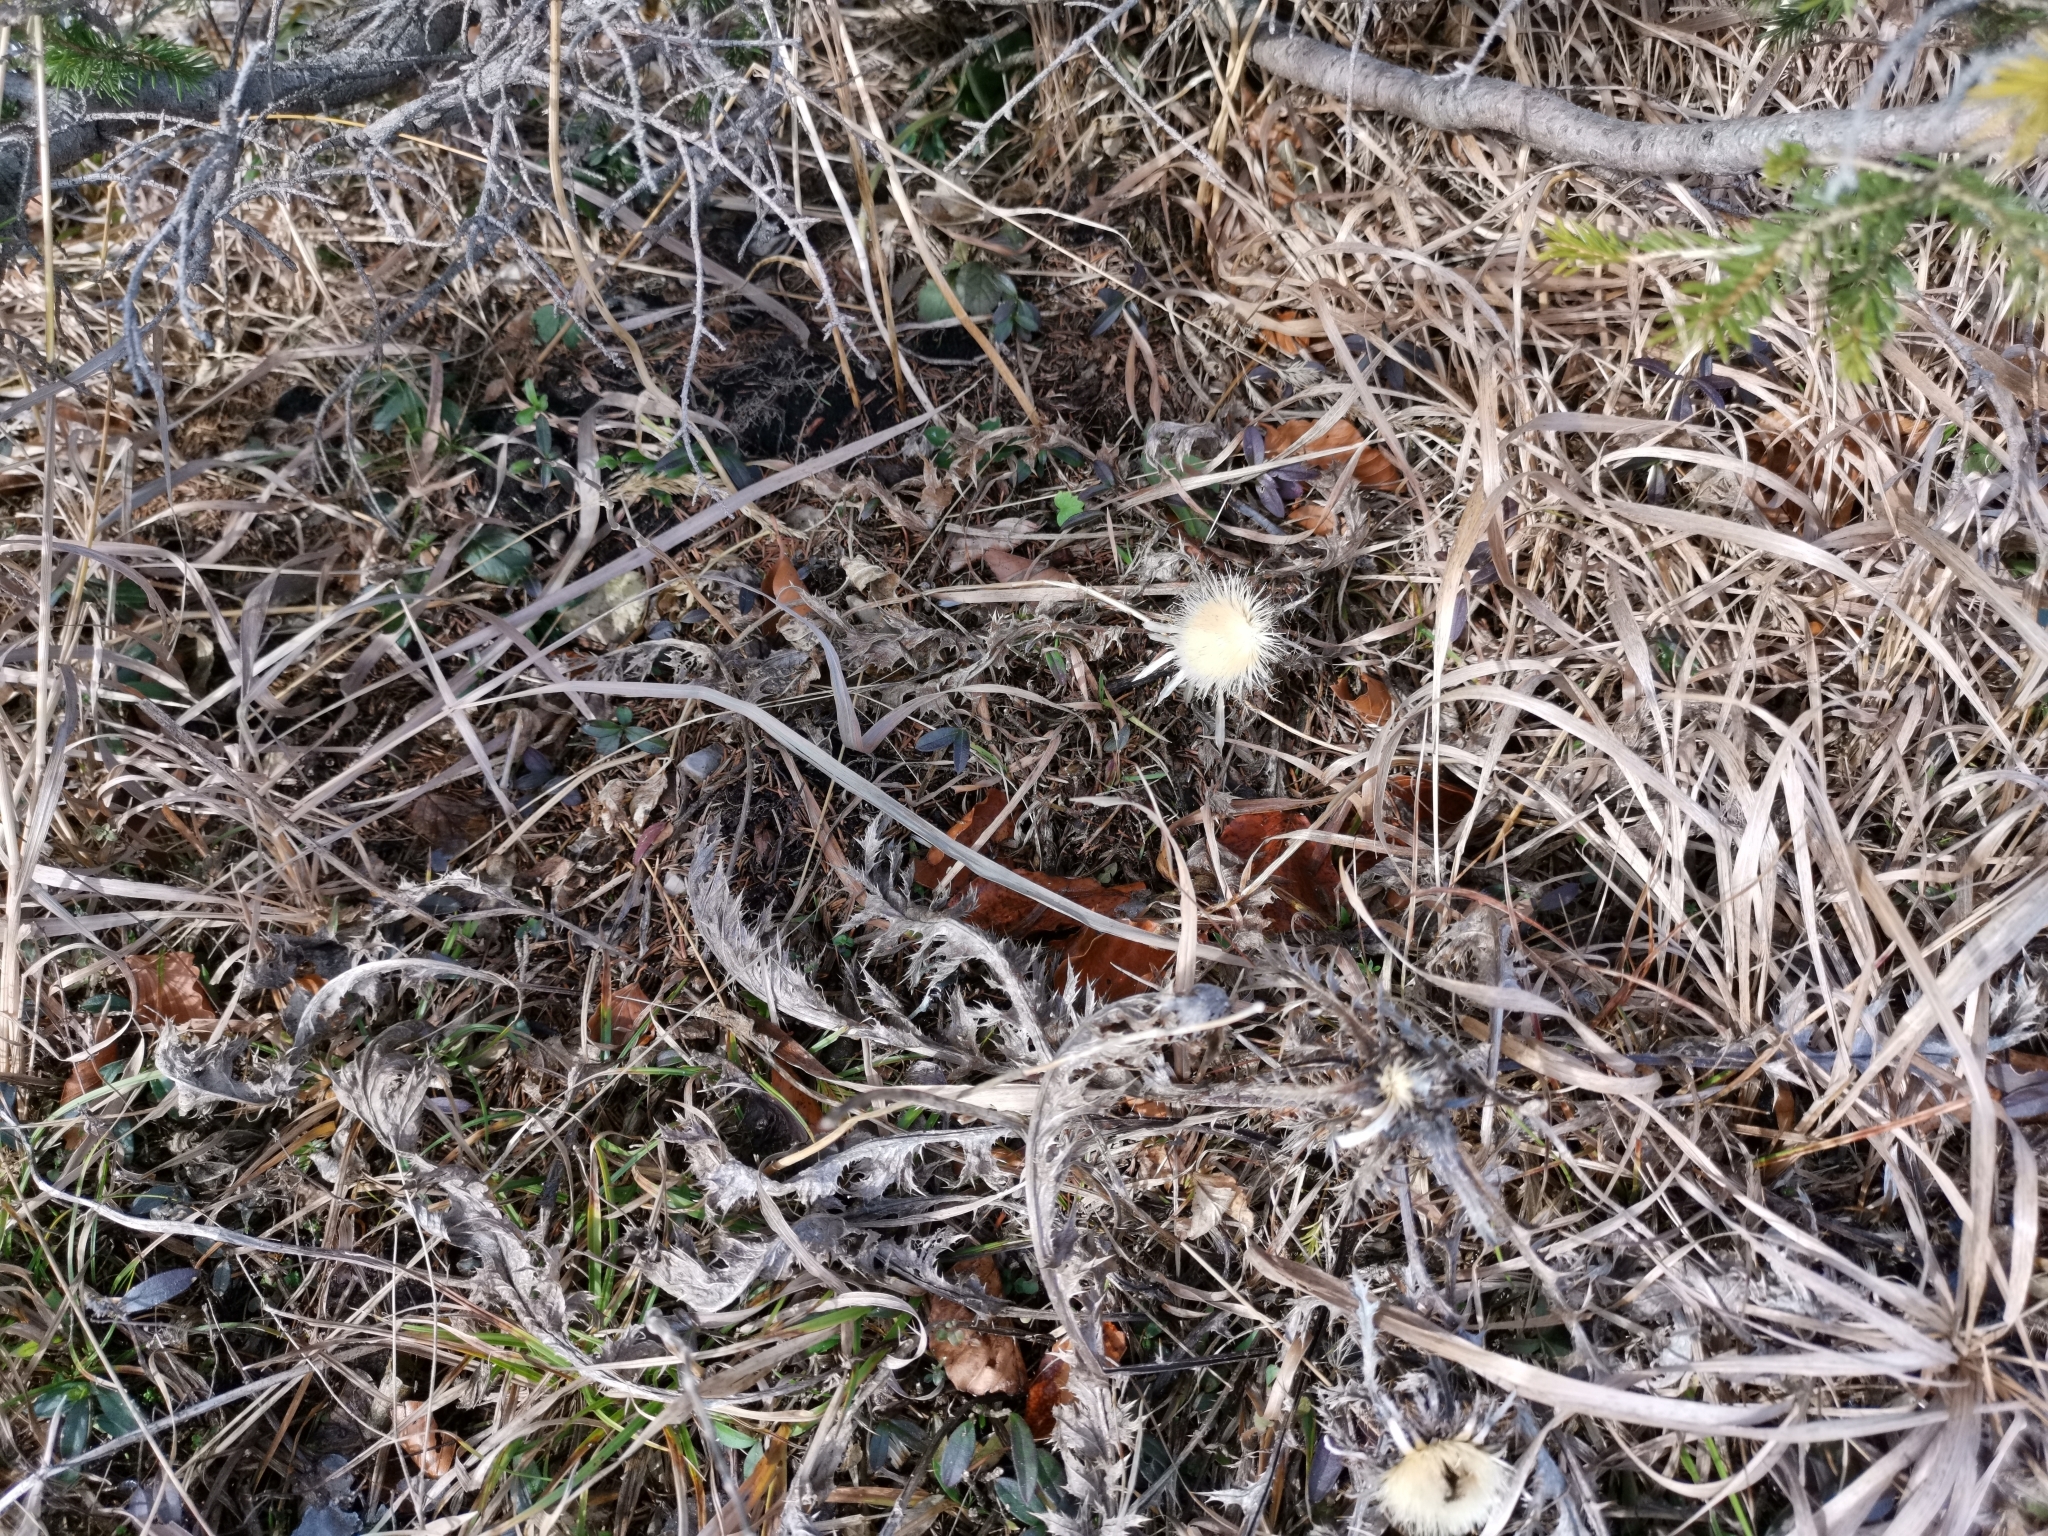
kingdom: Plantae
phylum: Tracheophyta
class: Magnoliopsida
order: Asterales
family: Asteraceae
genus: Carlina
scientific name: Carlina acaulis
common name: Stemless carline thistle
